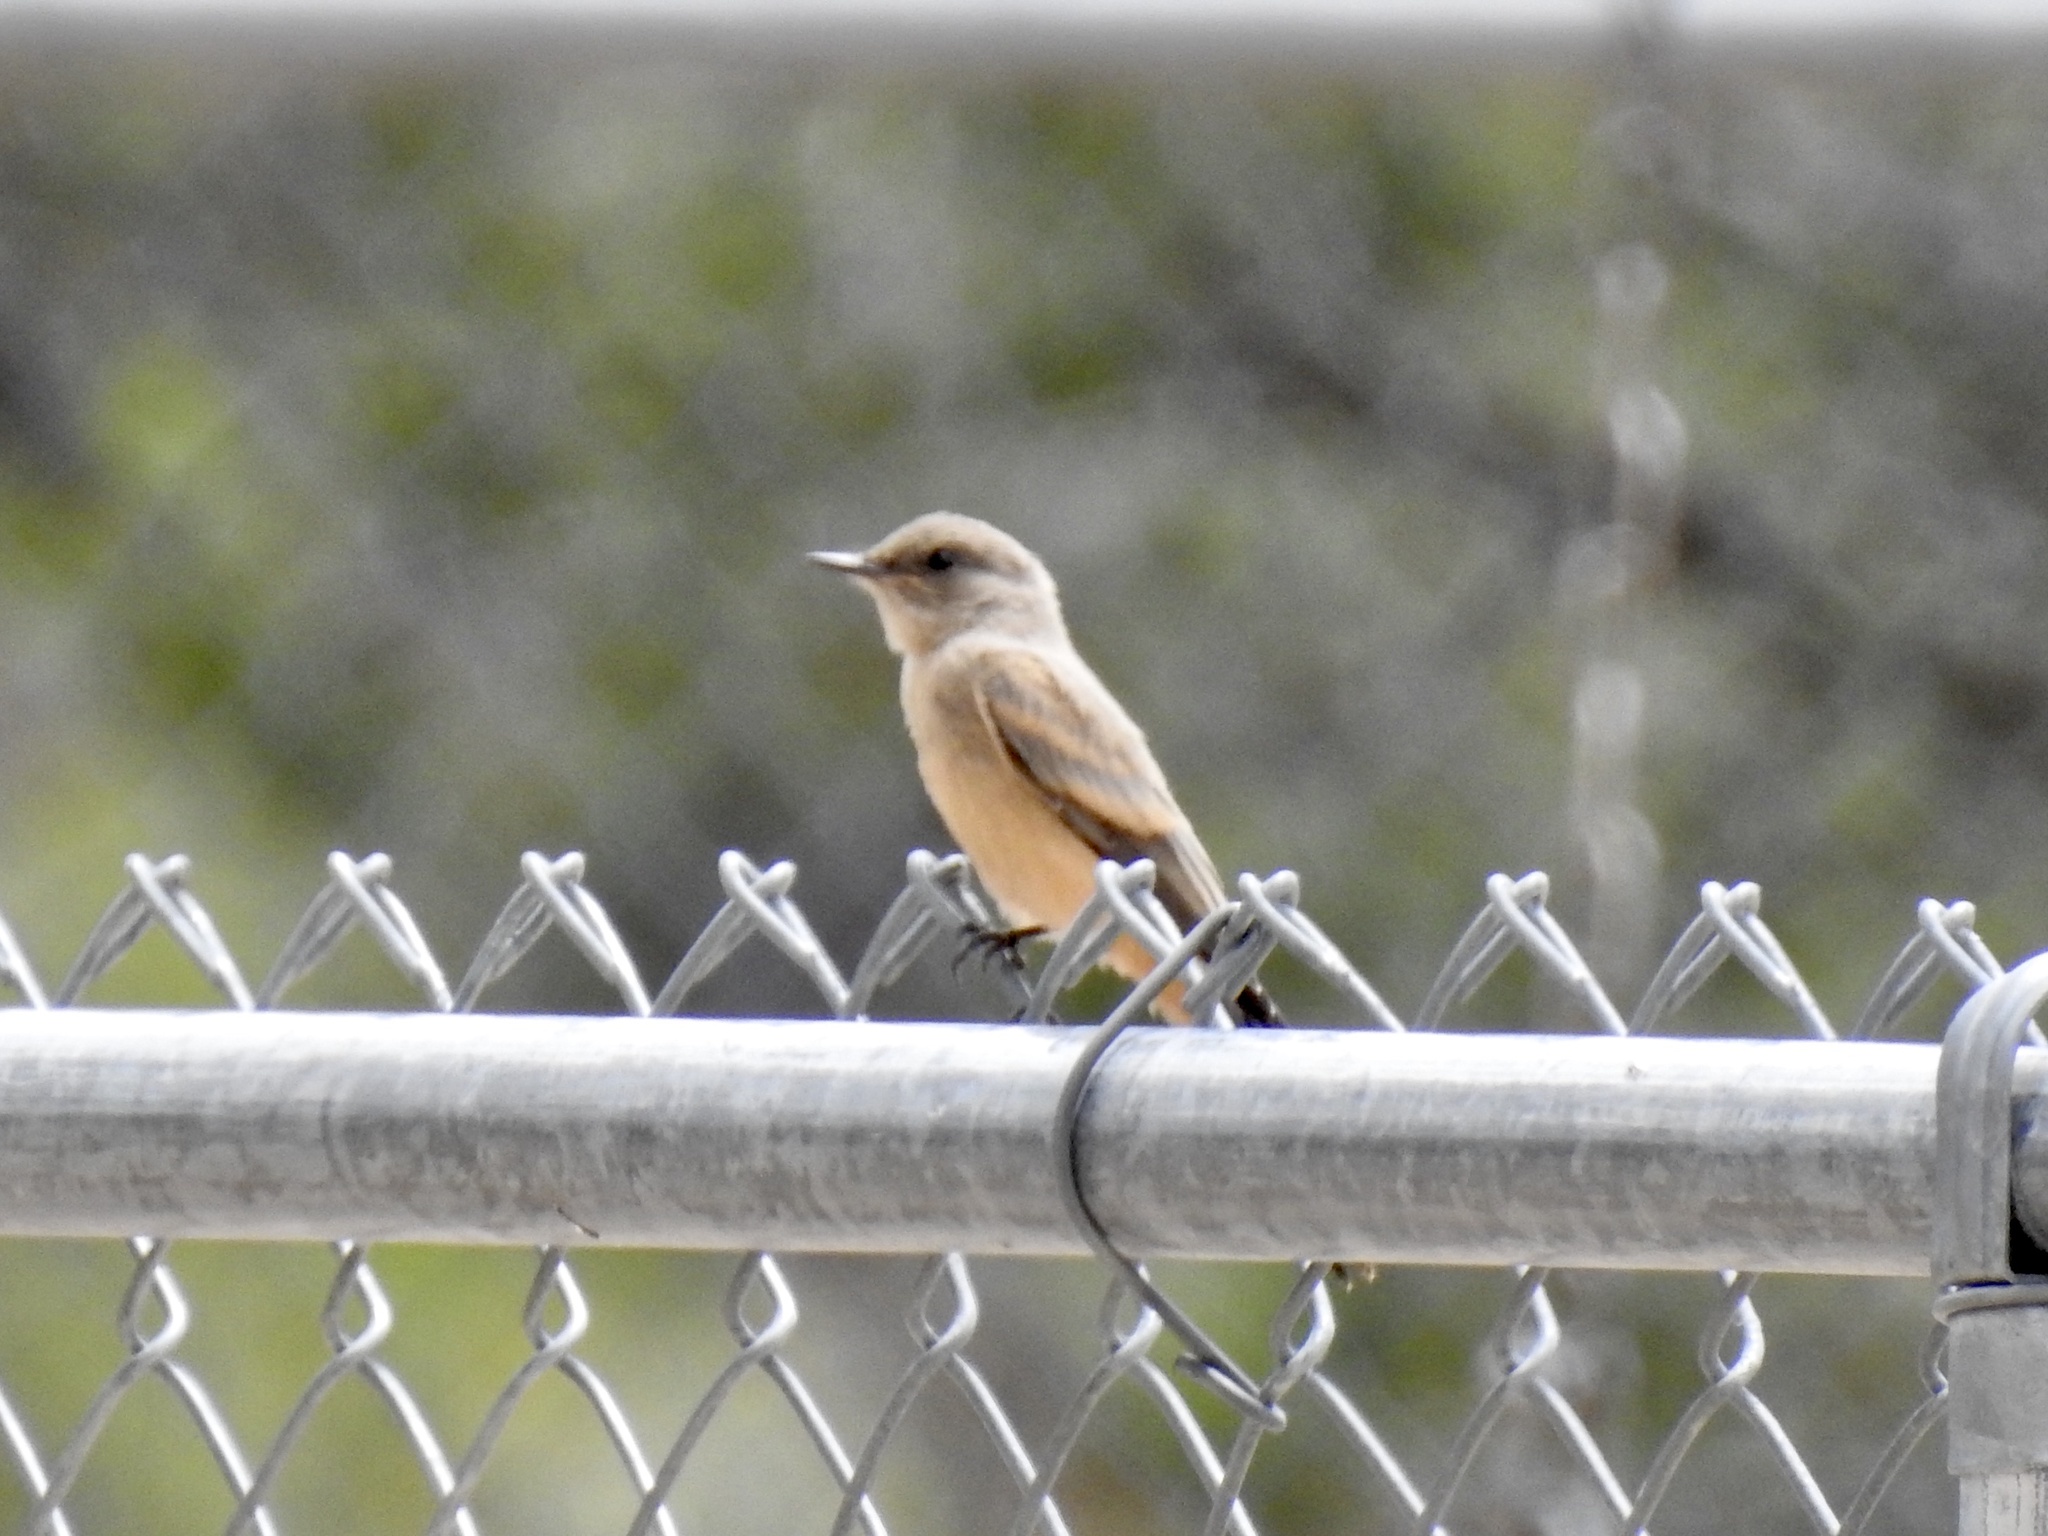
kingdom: Animalia
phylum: Chordata
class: Aves
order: Passeriformes
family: Tyrannidae
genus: Sayornis
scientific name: Sayornis saya
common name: Say's phoebe
